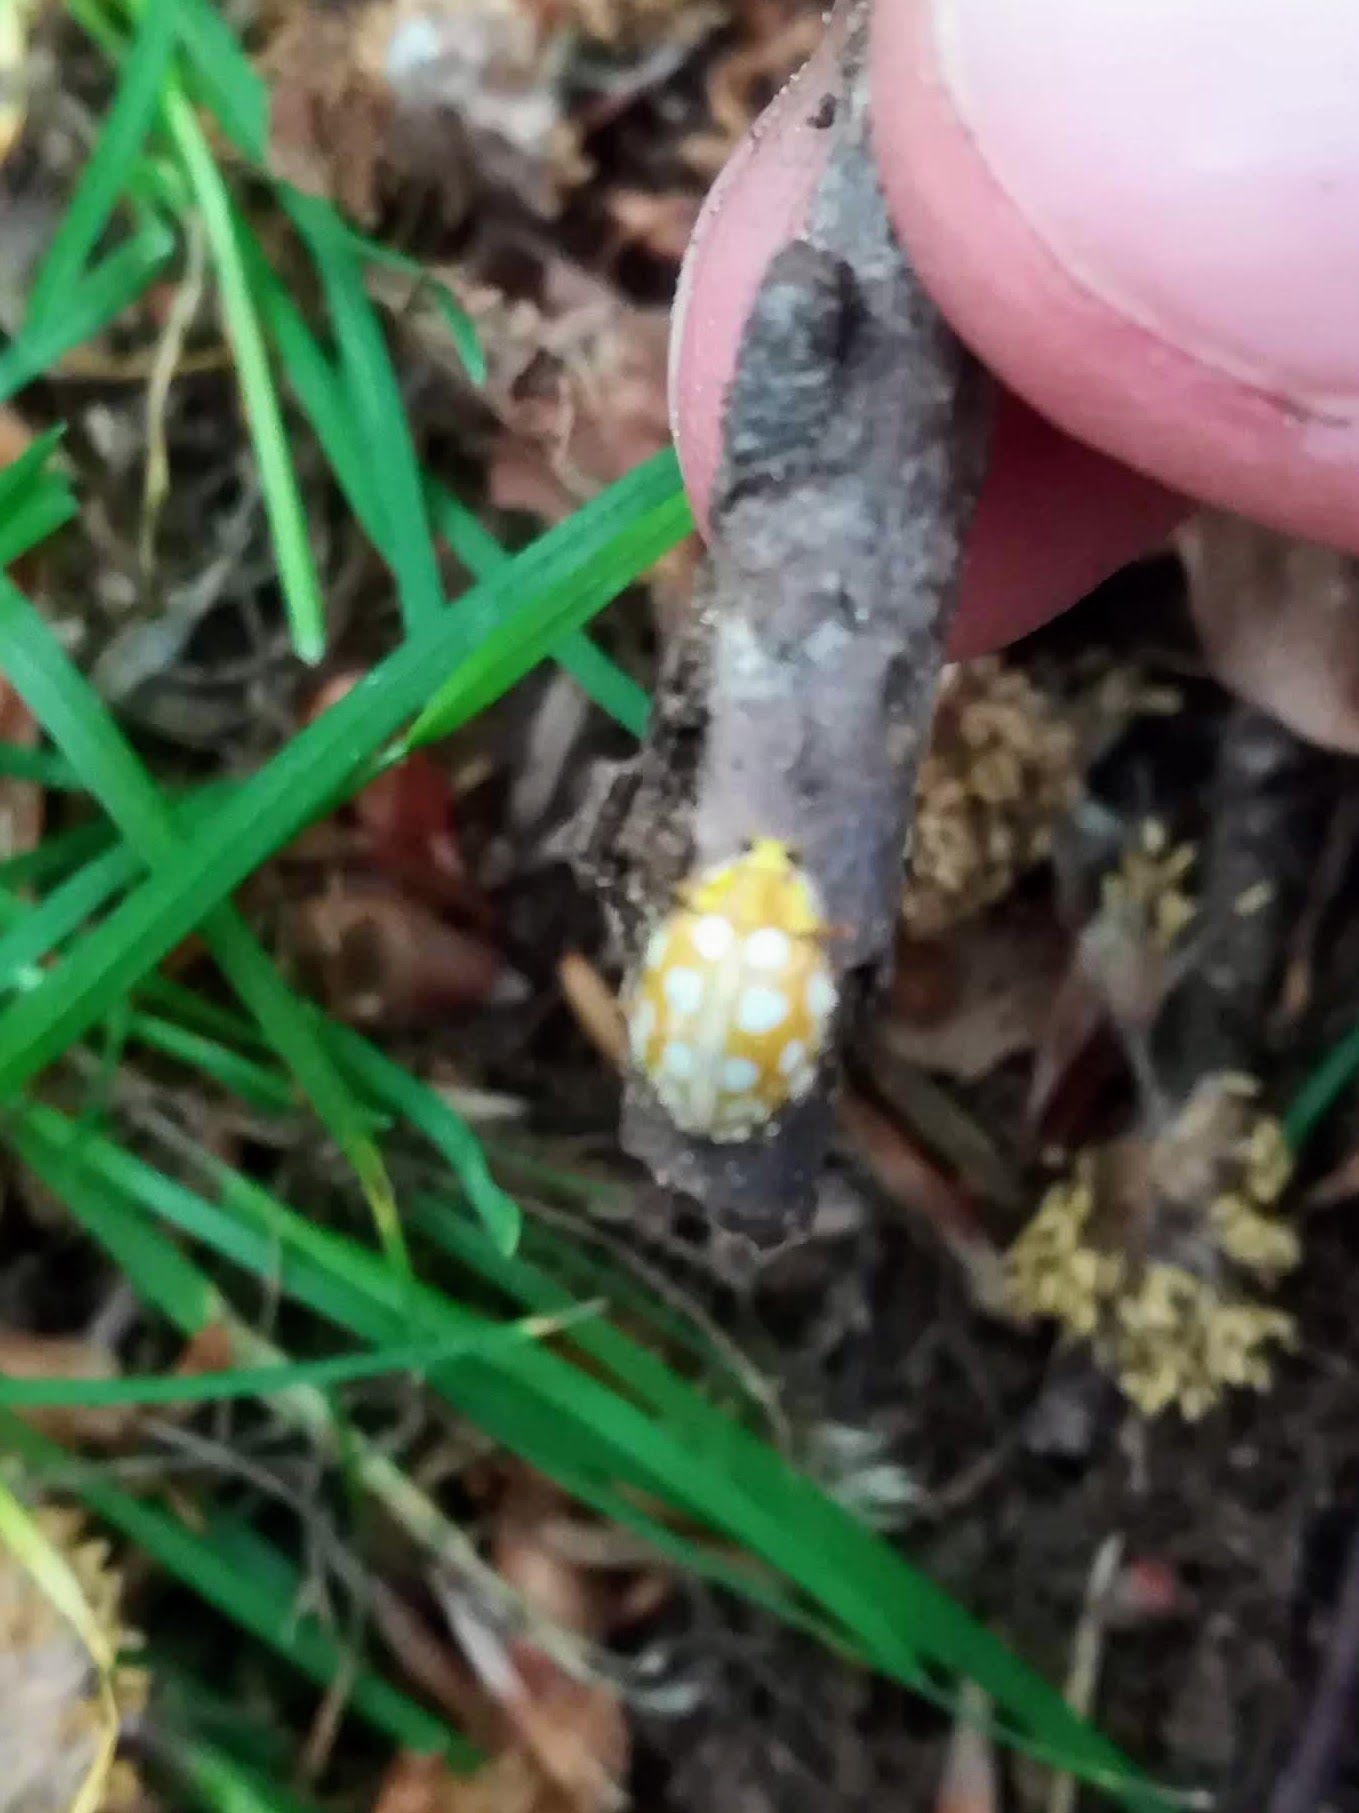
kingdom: Animalia
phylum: Arthropoda
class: Insecta
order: Coleoptera
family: Coccinellidae
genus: Halyzia
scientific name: Halyzia sedecimguttata
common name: Orange ladybird
